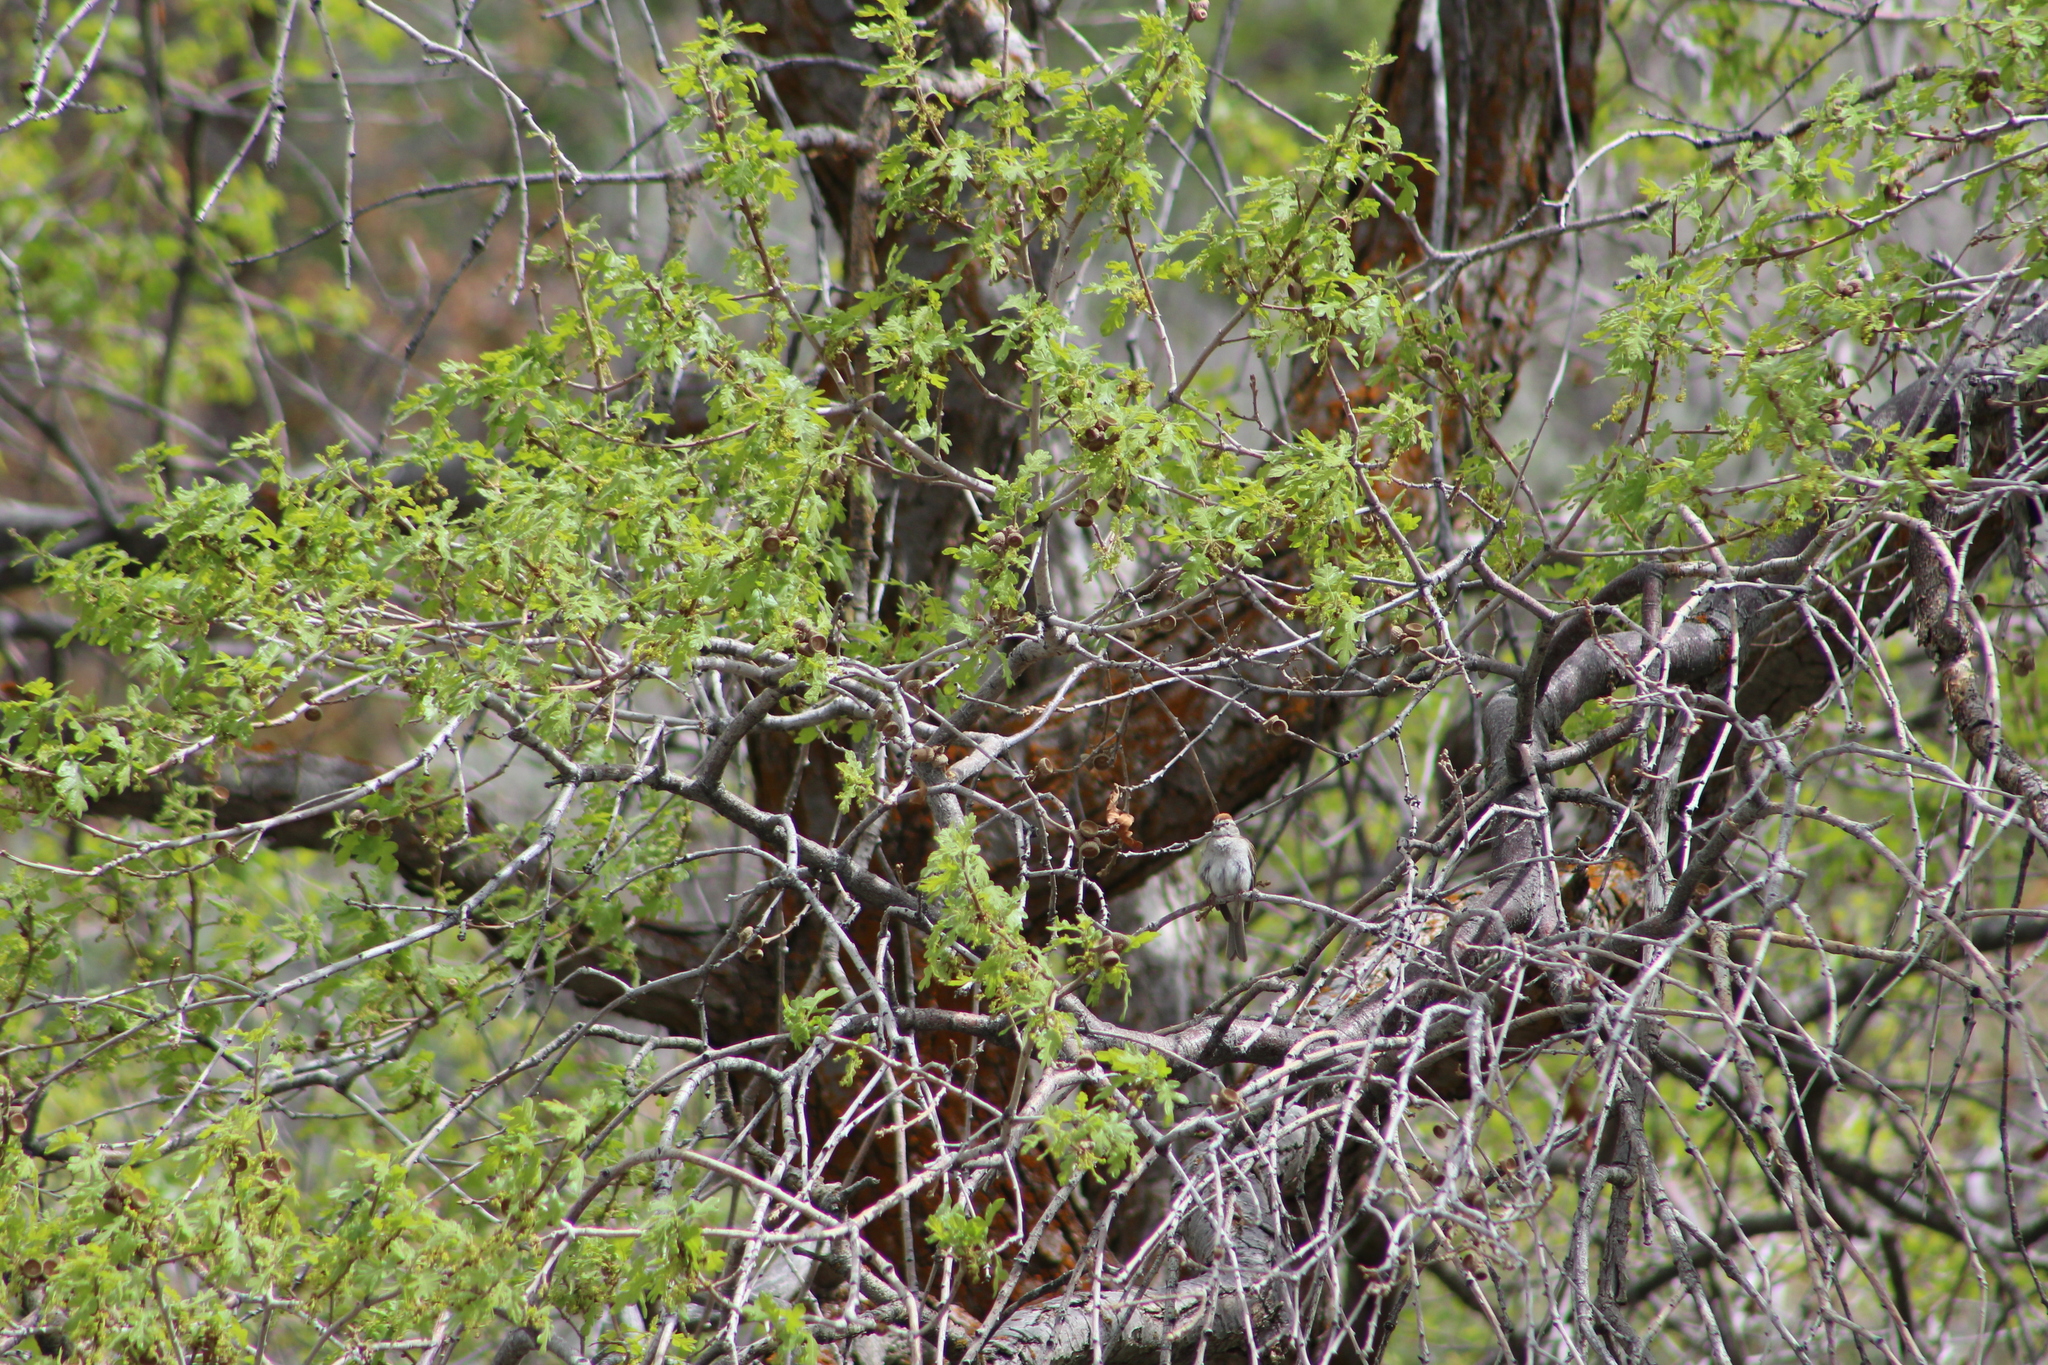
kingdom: Animalia
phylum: Chordata
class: Aves
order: Passeriformes
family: Passerellidae
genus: Spizella
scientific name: Spizella passerina
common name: Chipping sparrow
